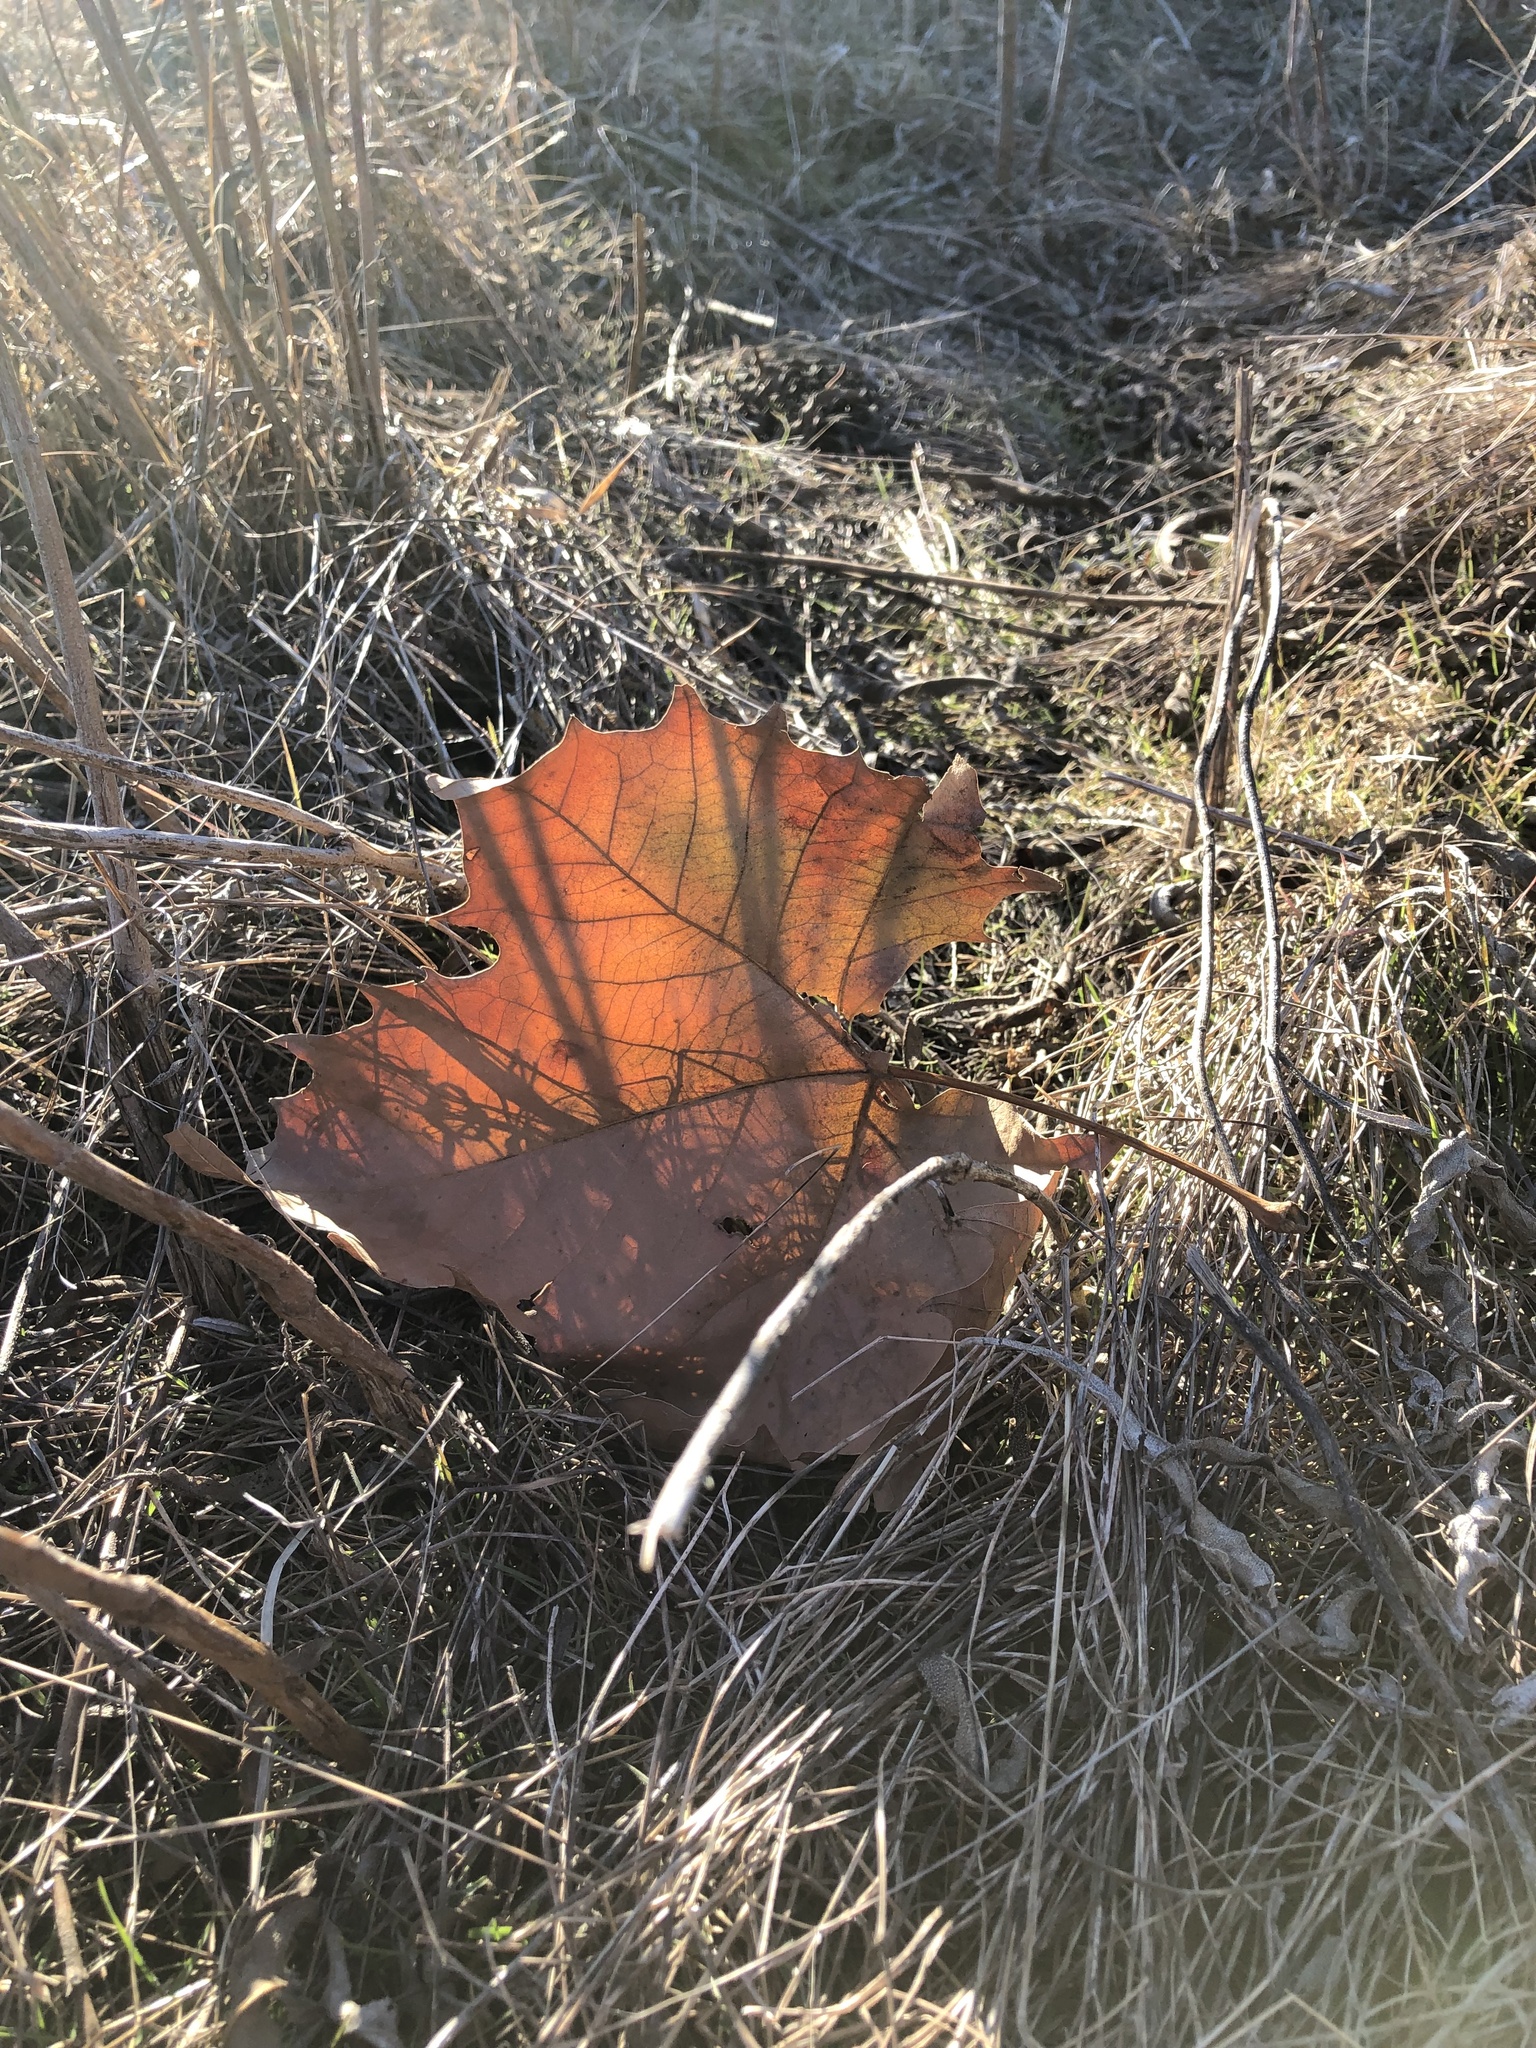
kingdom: Plantae
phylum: Tracheophyta
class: Magnoliopsida
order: Proteales
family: Platanaceae
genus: Platanus
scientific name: Platanus occidentalis
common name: American sycamore
